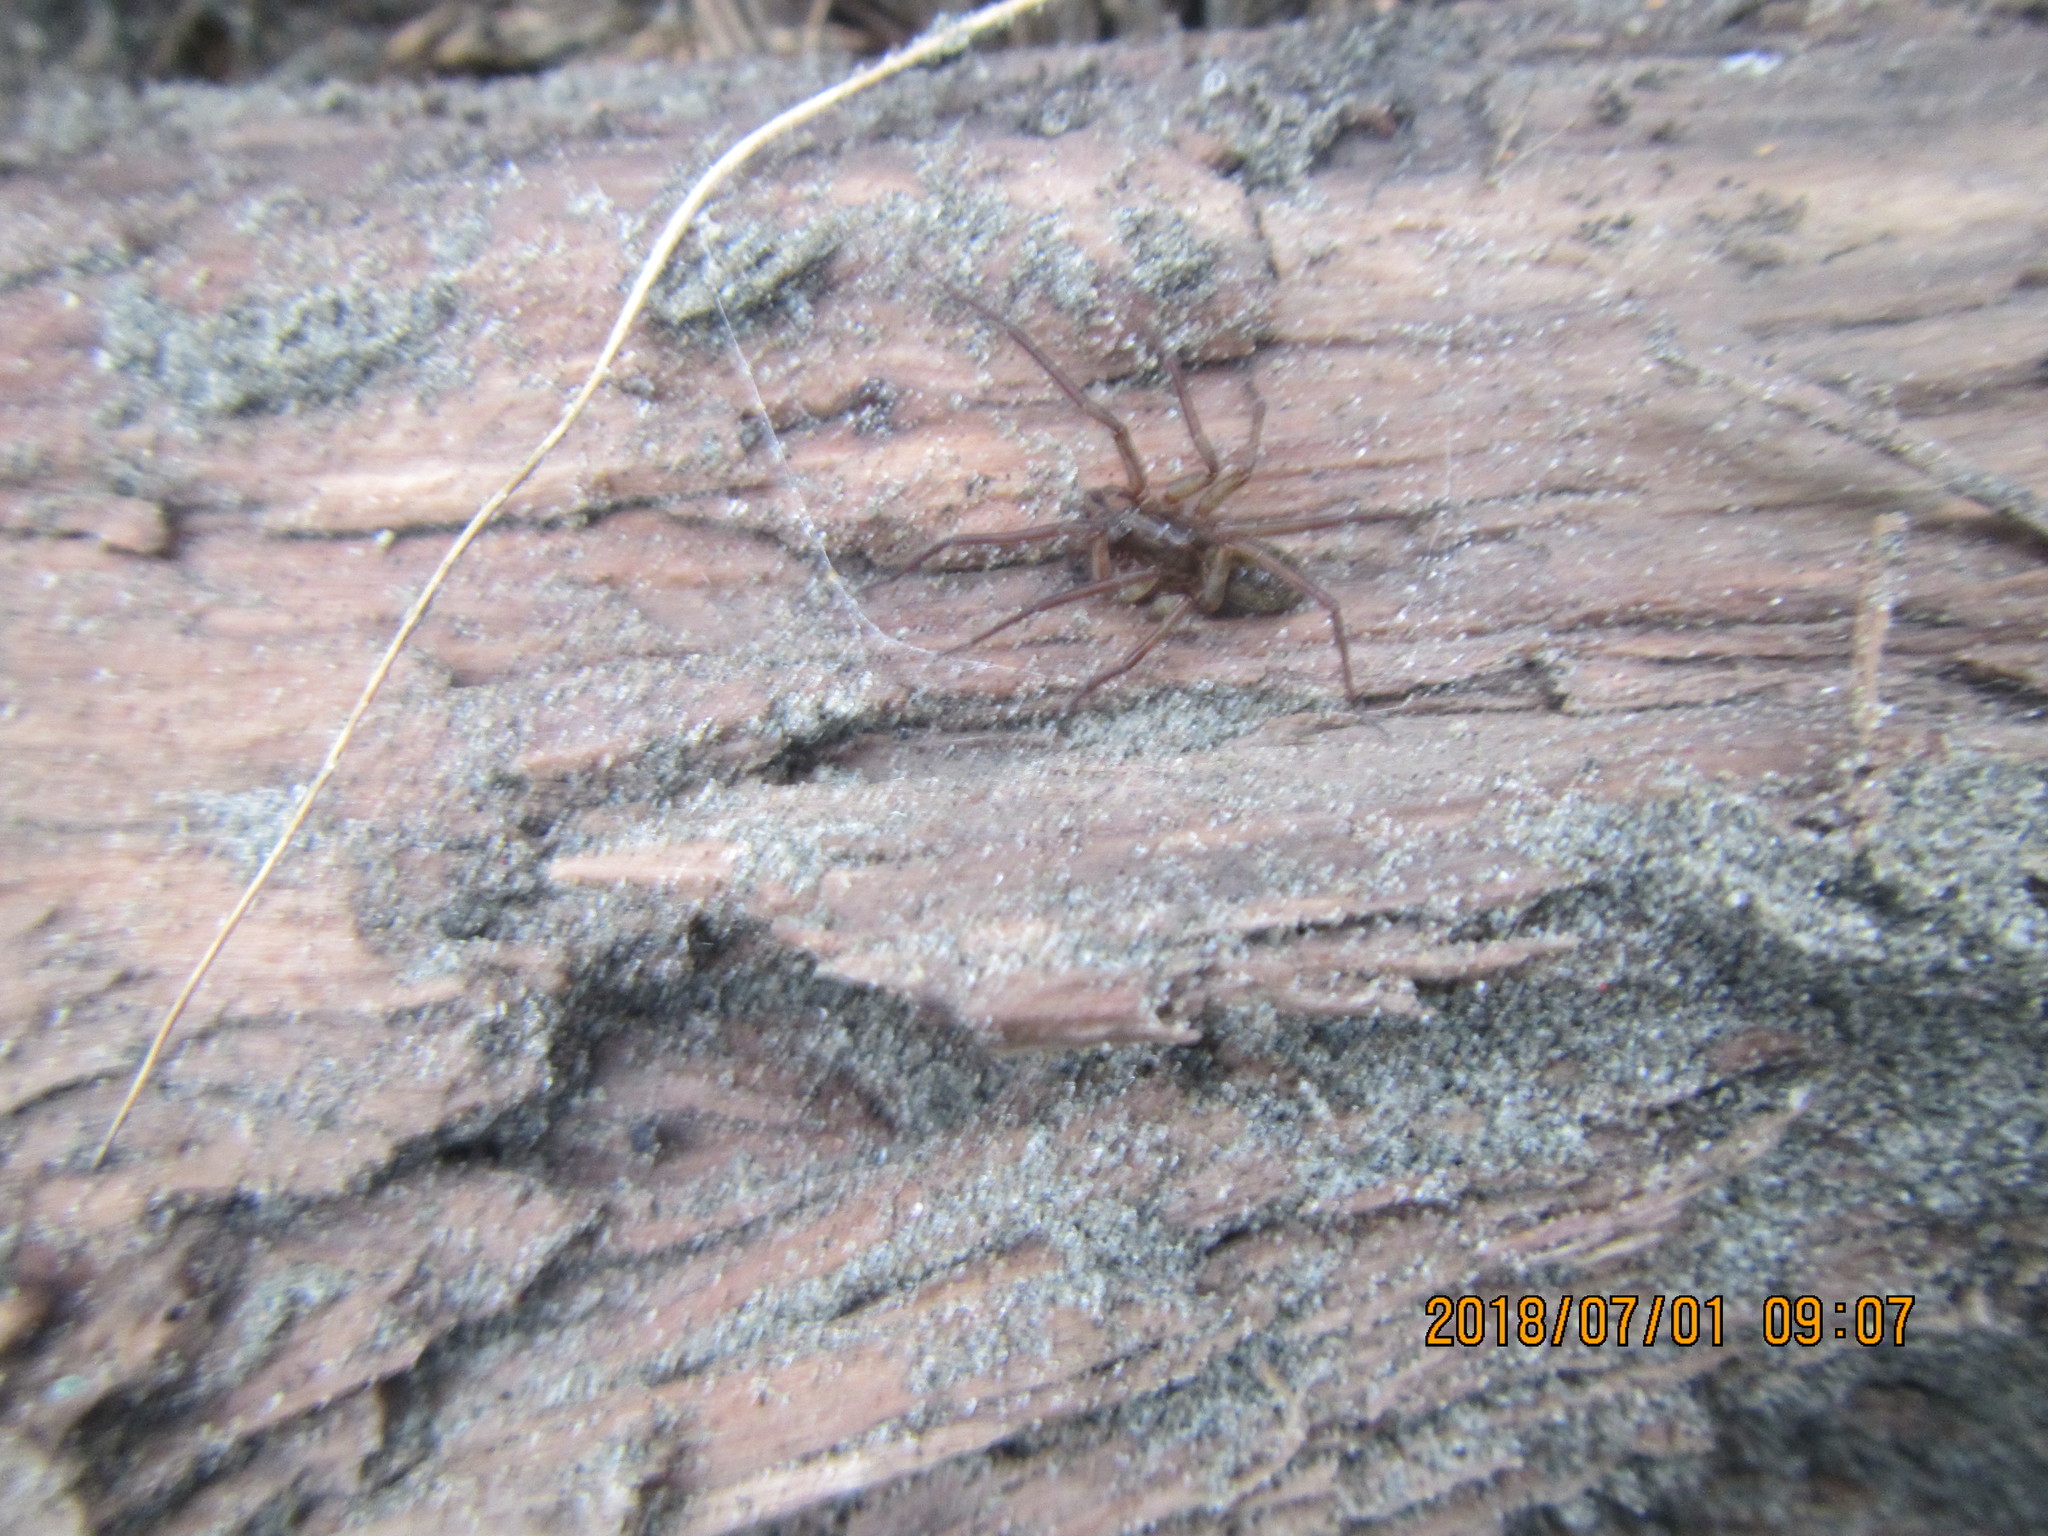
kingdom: Animalia
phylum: Arthropoda
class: Arachnida
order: Araneae
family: Lycosidae
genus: Allotrochosina
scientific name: Allotrochosina schauinslandi
